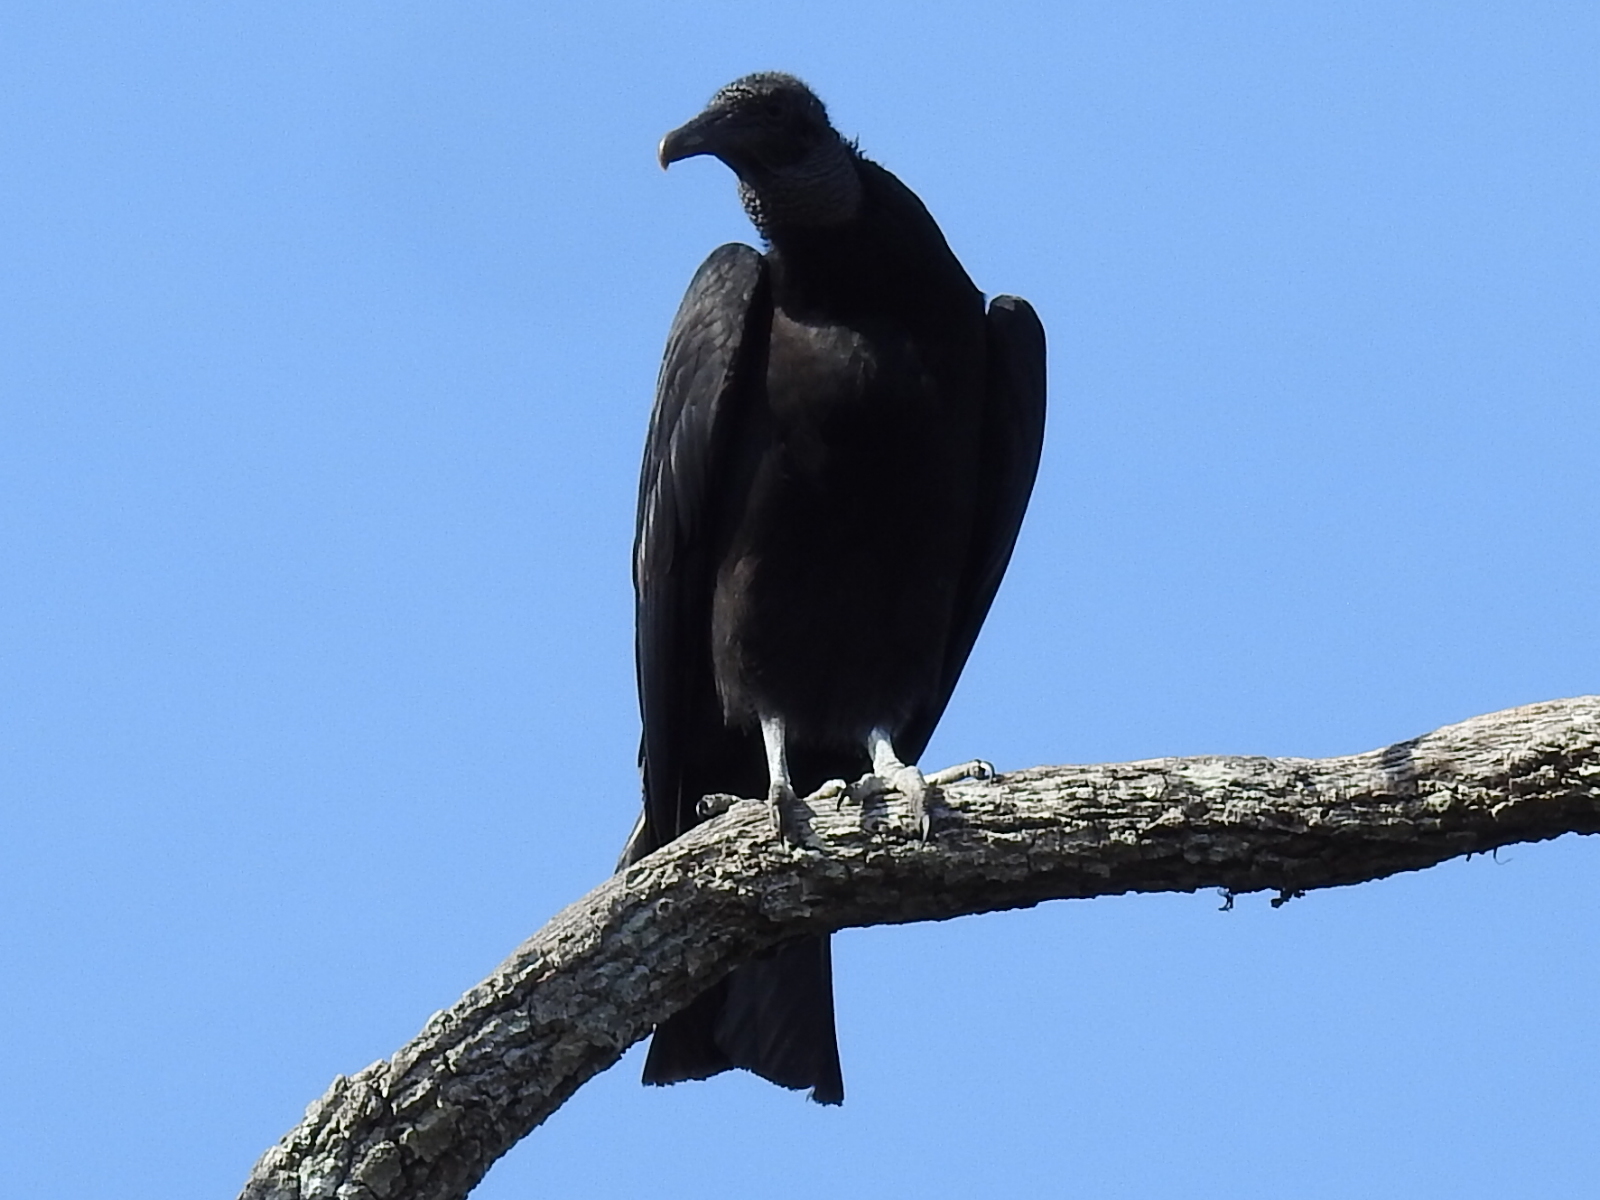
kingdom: Animalia
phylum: Chordata
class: Aves
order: Accipitriformes
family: Cathartidae
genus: Coragyps
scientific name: Coragyps atratus
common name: Black vulture
